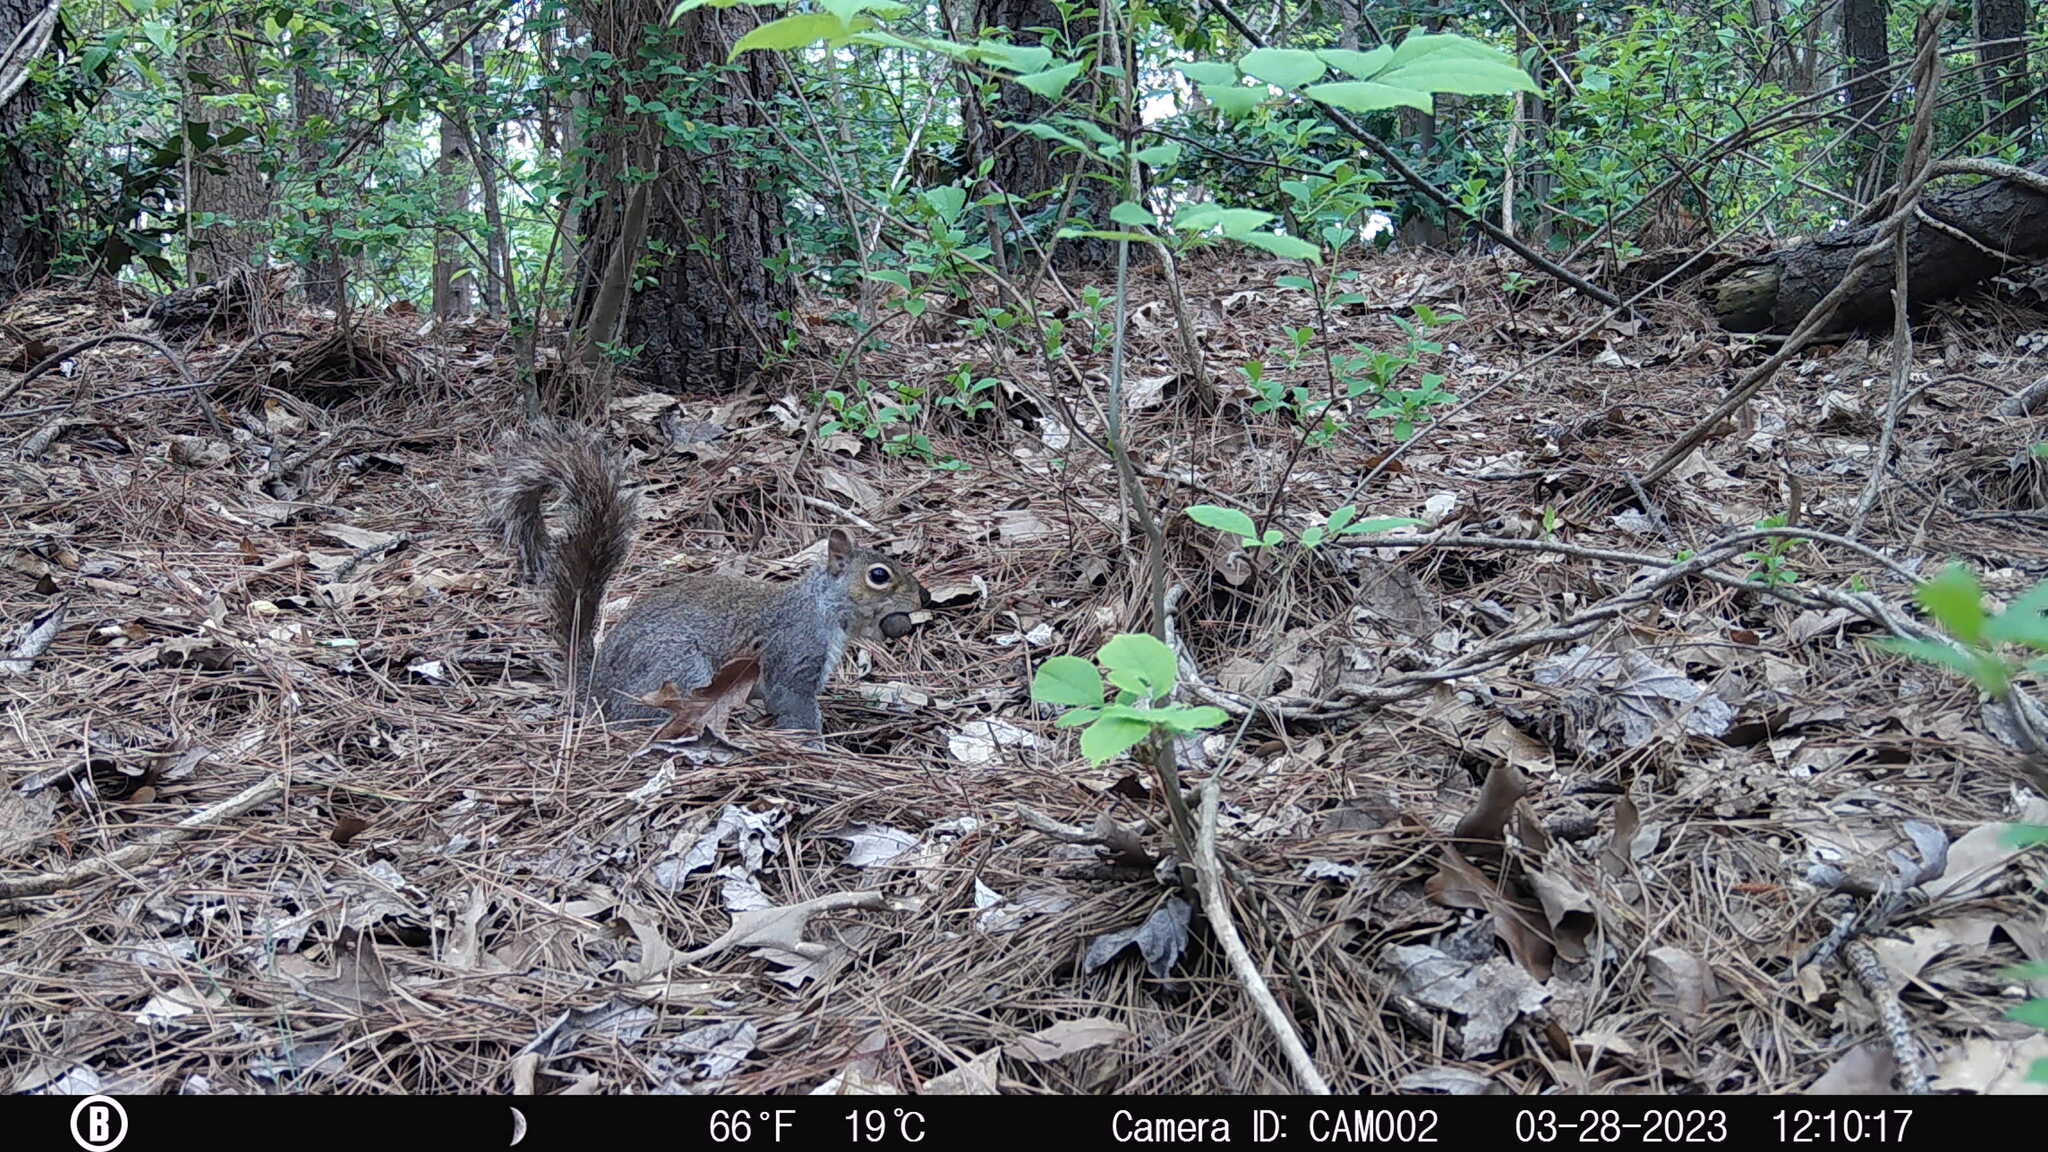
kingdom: Animalia
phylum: Chordata
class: Mammalia
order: Rodentia
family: Sciuridae
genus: Sciurus
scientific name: Sciurus carolinensis
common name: Eastern gray squirrel
